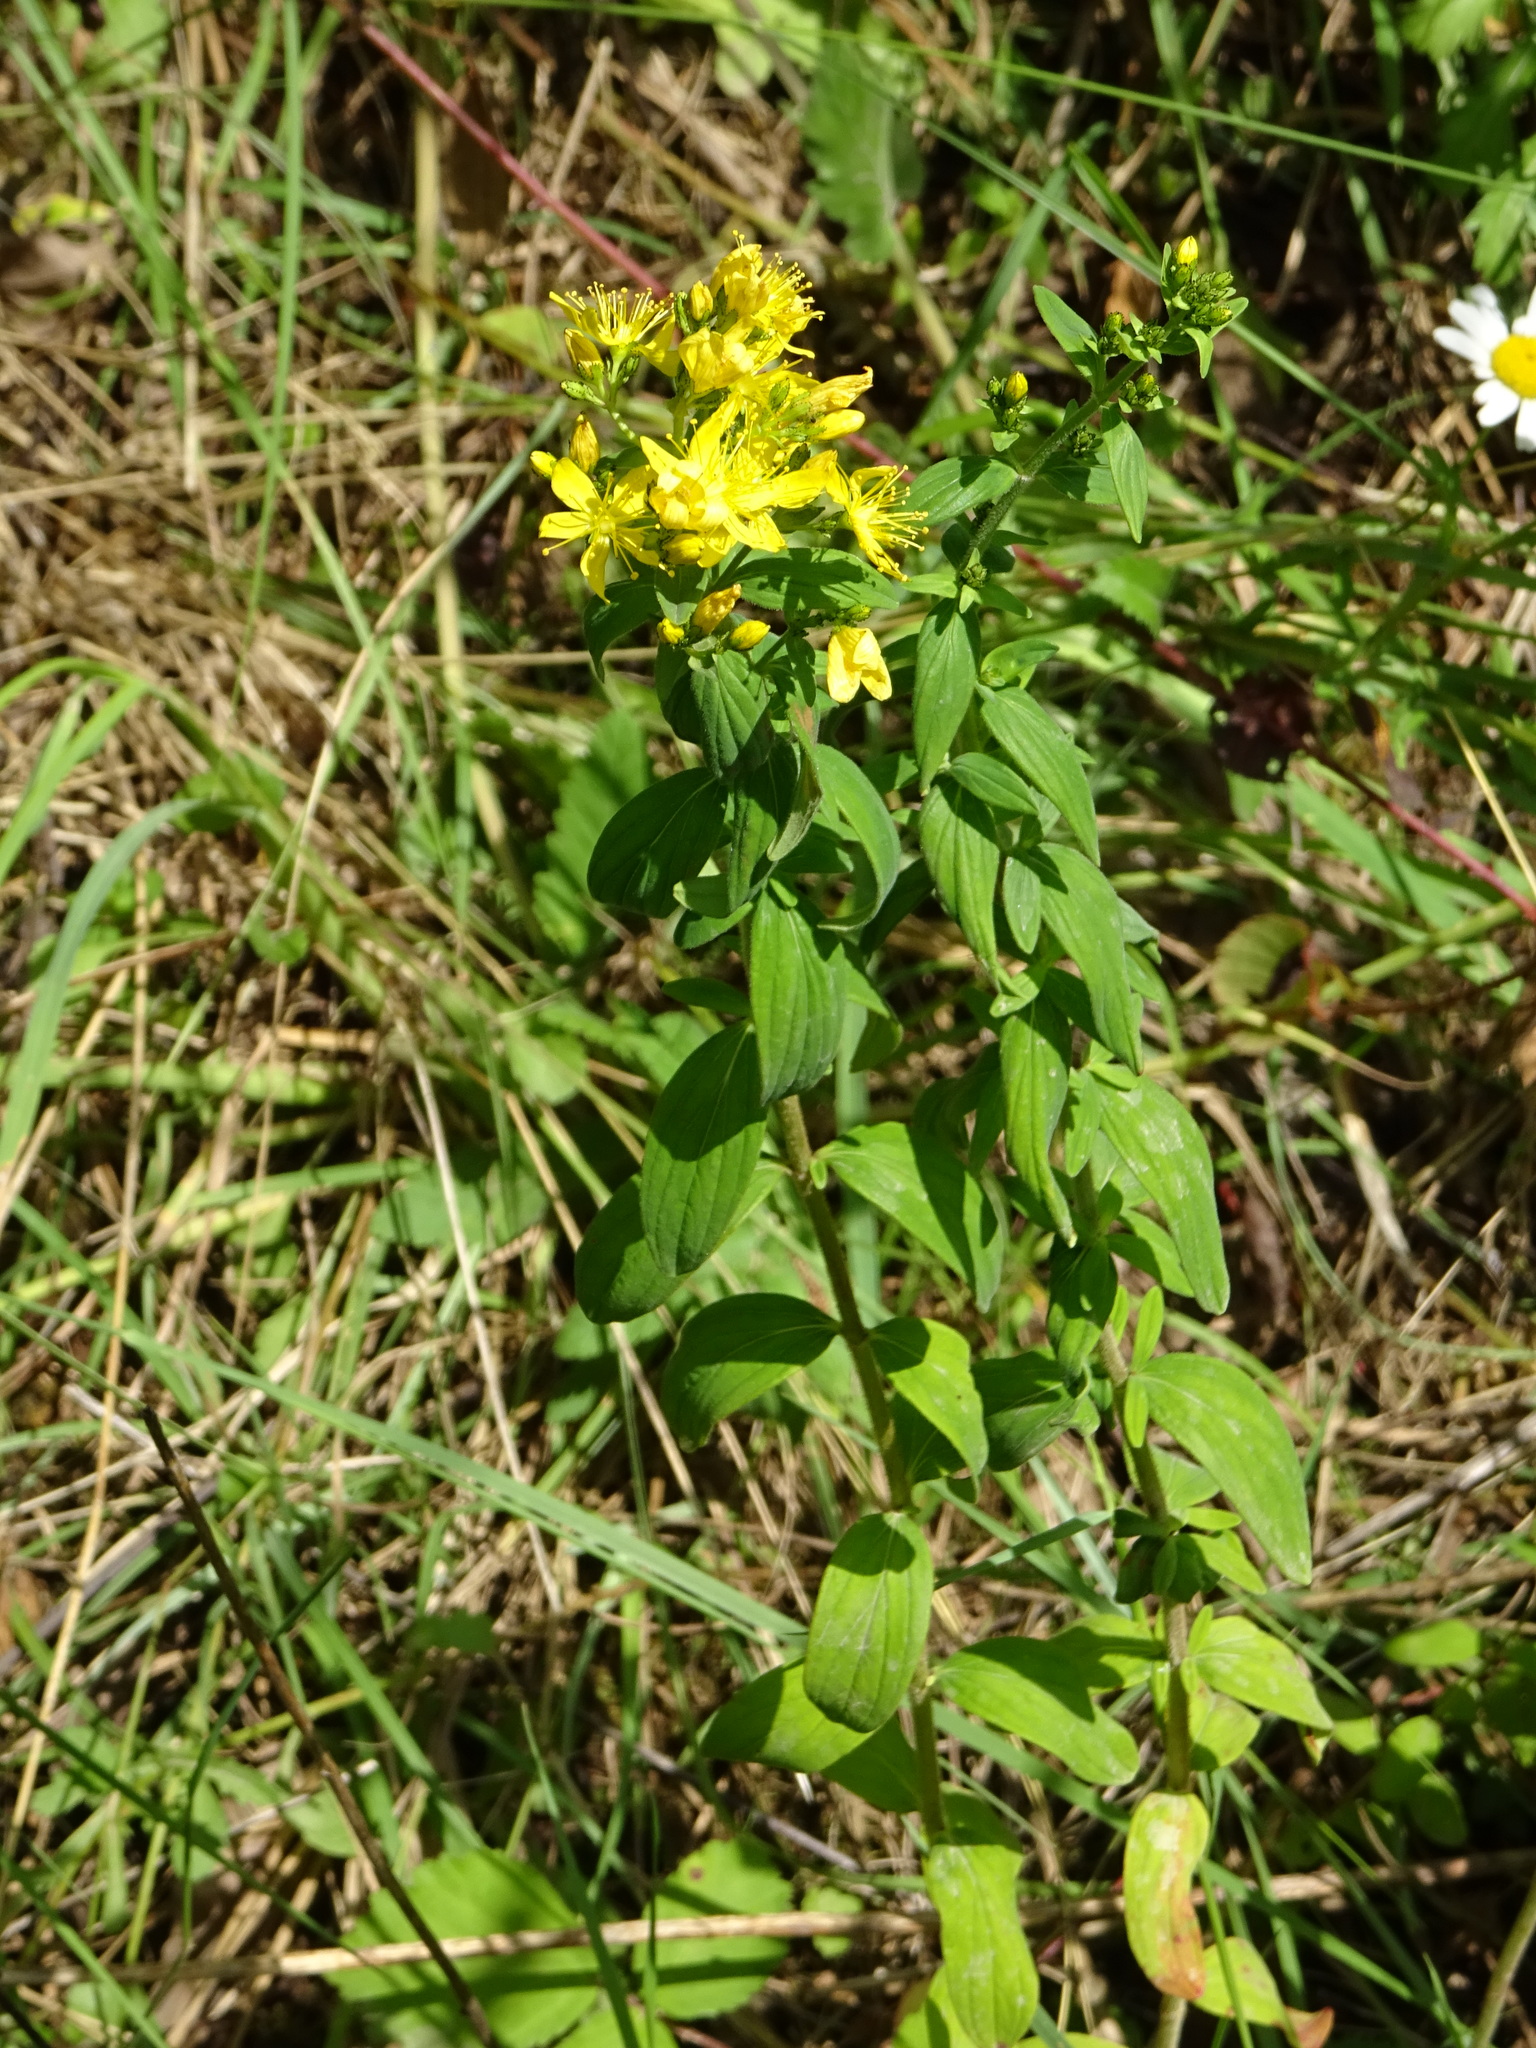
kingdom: Plantae
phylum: Tracheophyta
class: Magnoliopsida
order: Malpighiales
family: Hypericaceae
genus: Hypericum
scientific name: Hypericum hirsutum
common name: Hairy st. john's-wort
